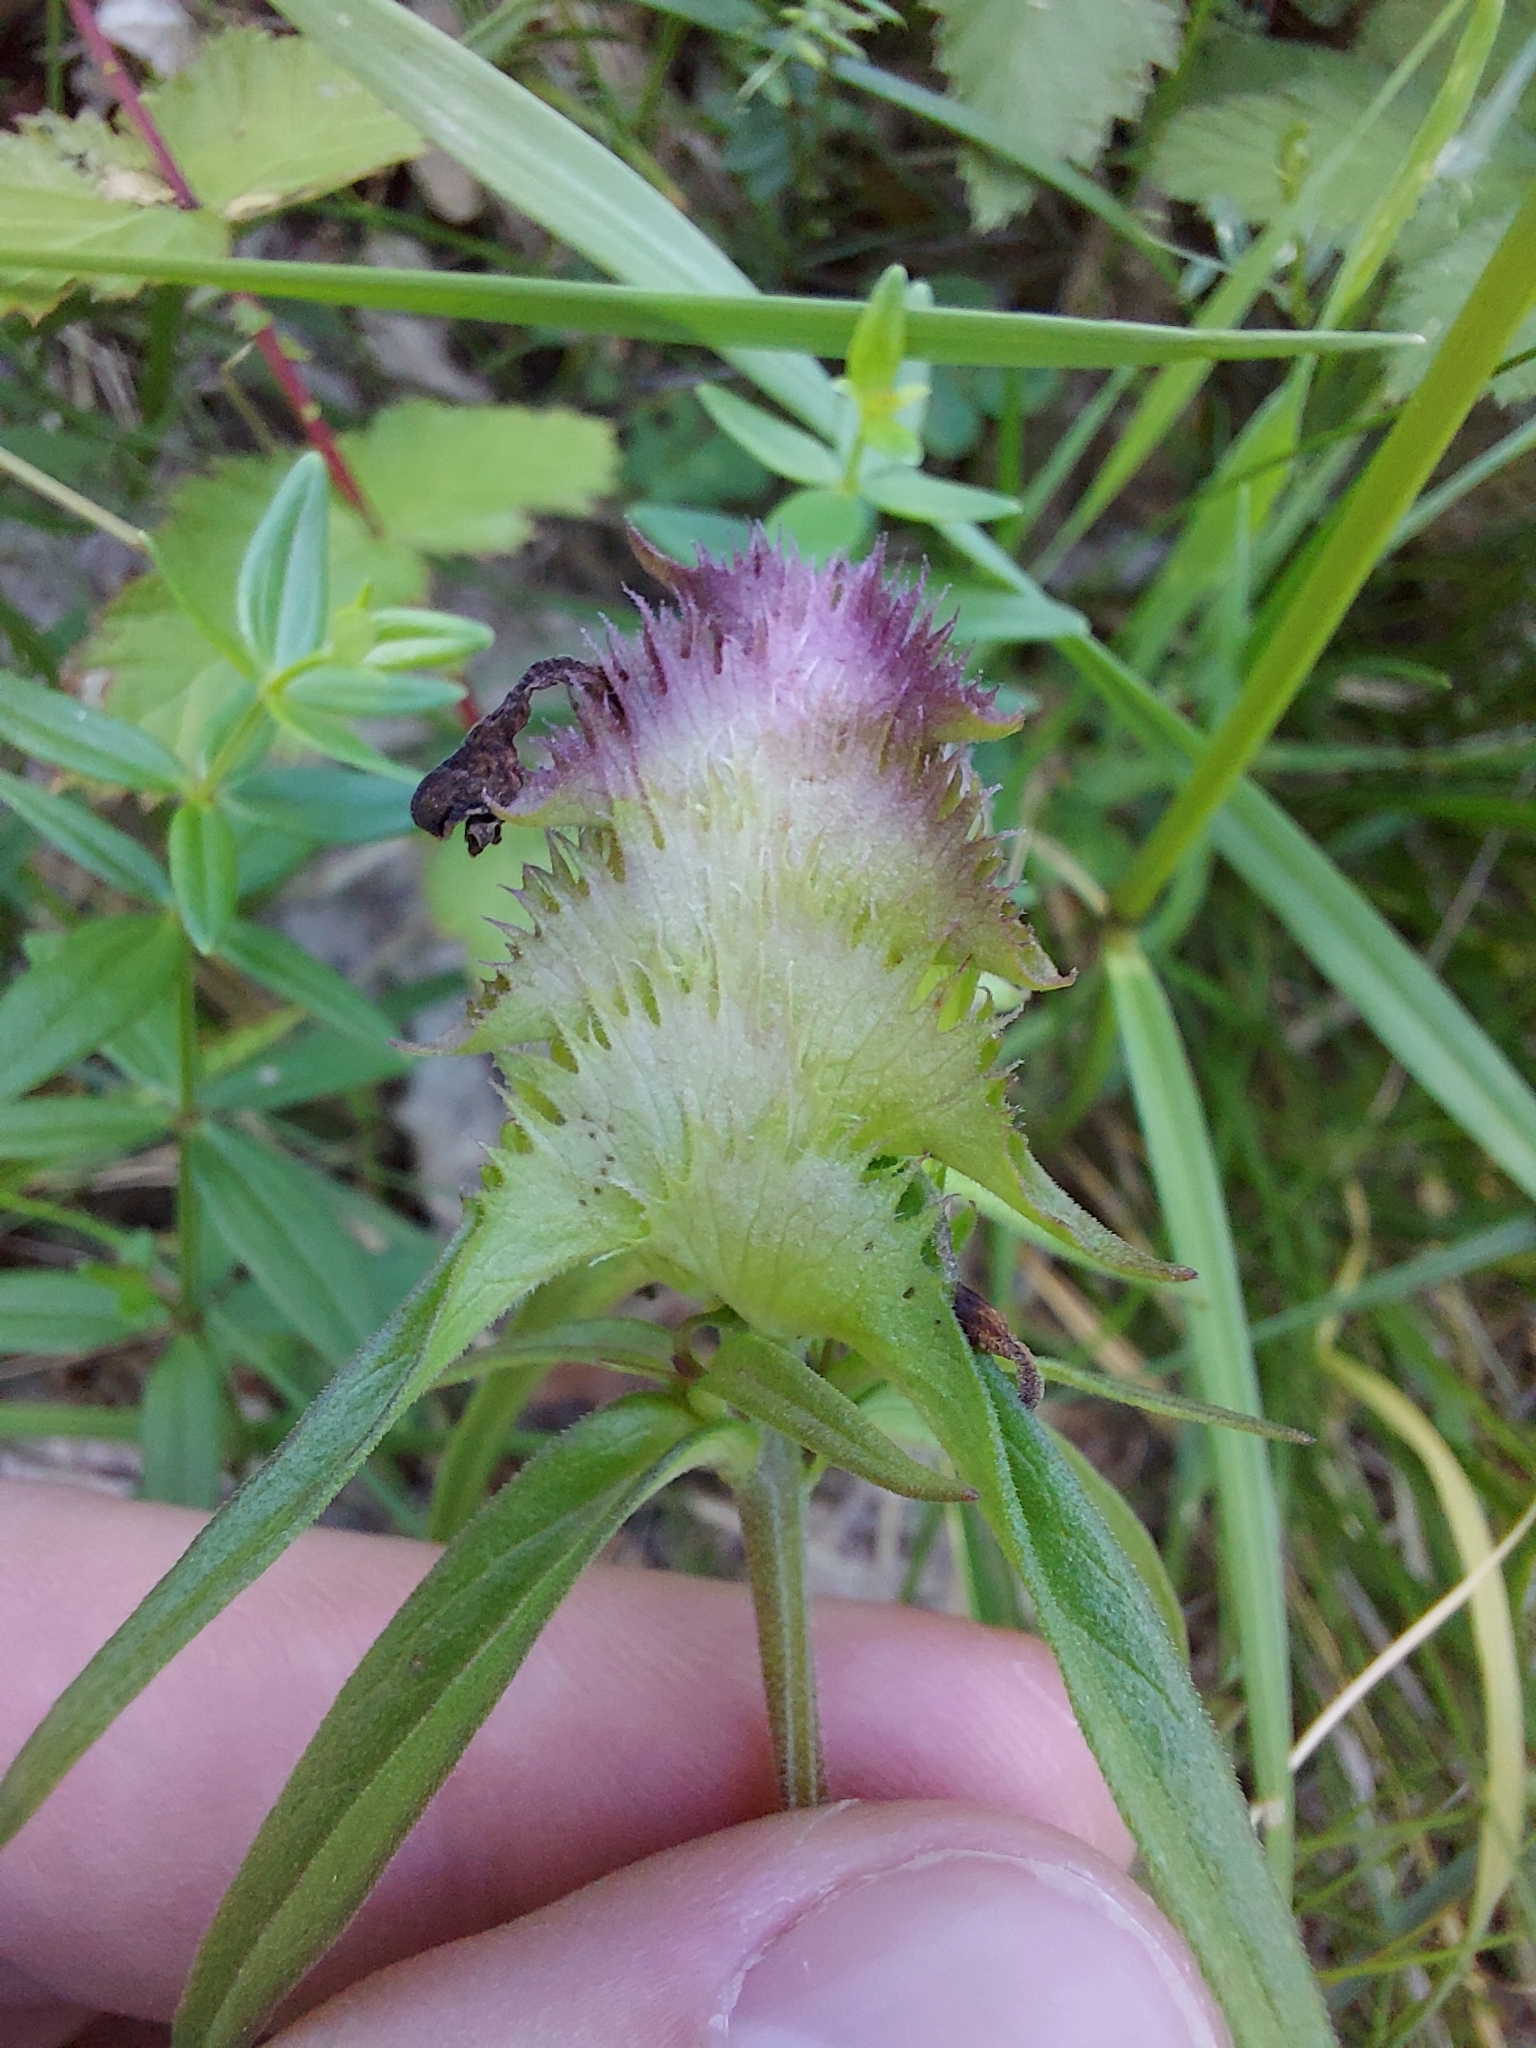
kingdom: Plantae
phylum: Tracheophyta
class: Magnoliopsida
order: Lamiales
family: Orobanchaceae
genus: Melampyrum
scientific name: Melampyrum cristatum
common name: Crested cow-wheat
